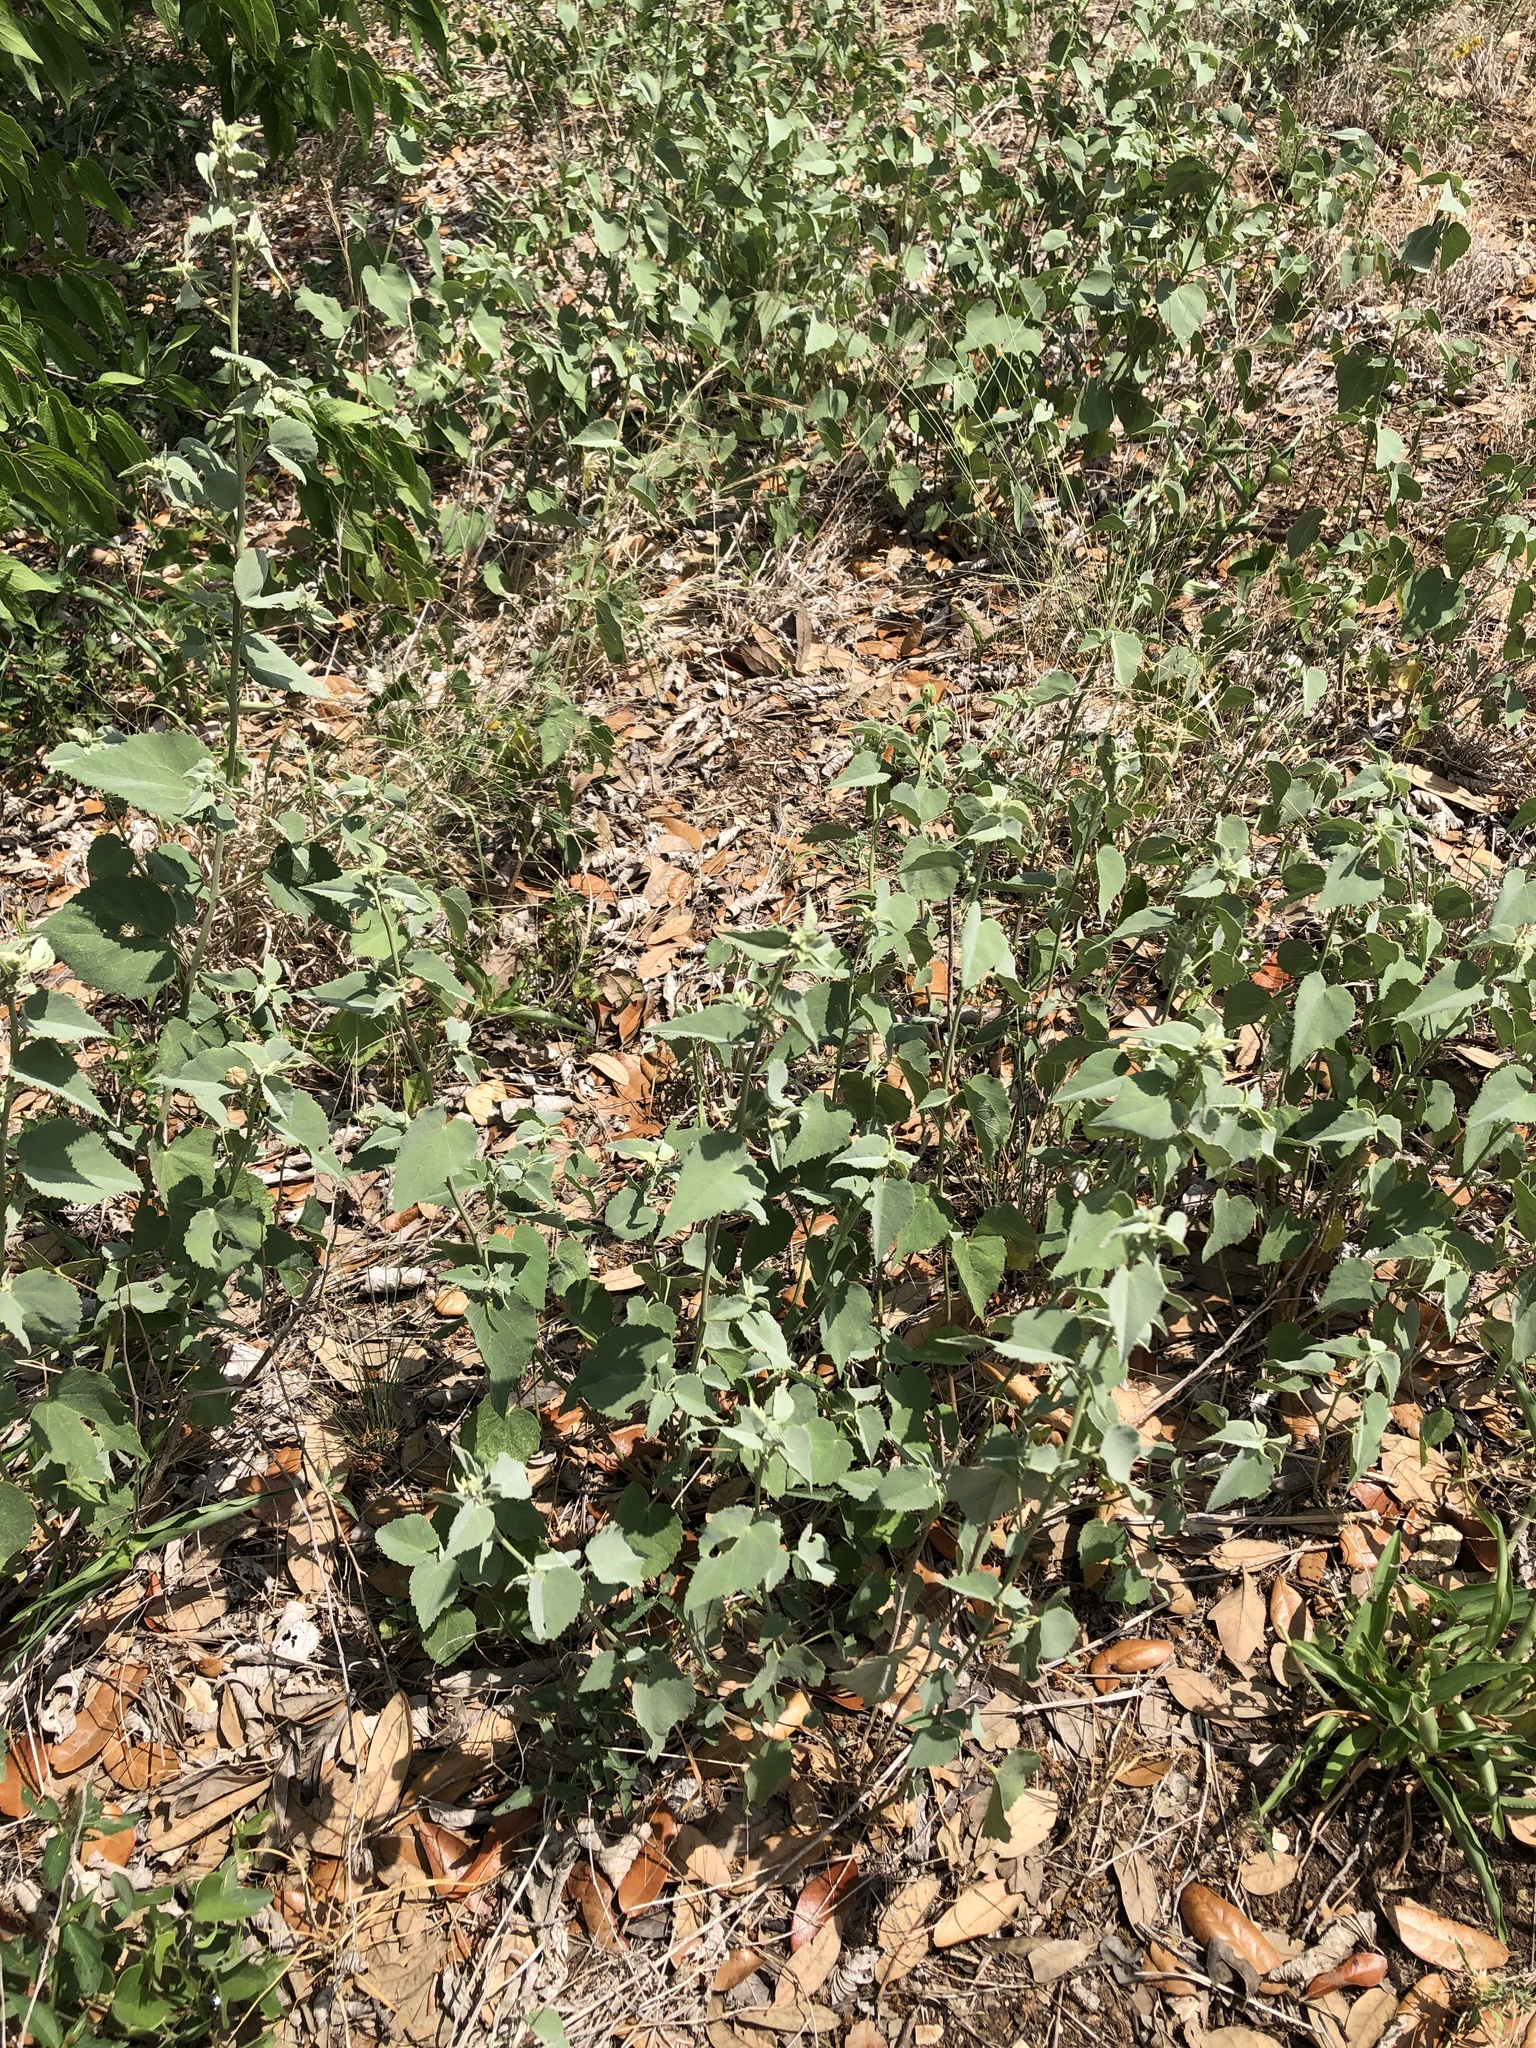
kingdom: Plantae
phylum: Tracheophyta
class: Magnoliopsida
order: Malvales
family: Malvaceae
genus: Abutilon
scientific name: Abutilon fruticosum
